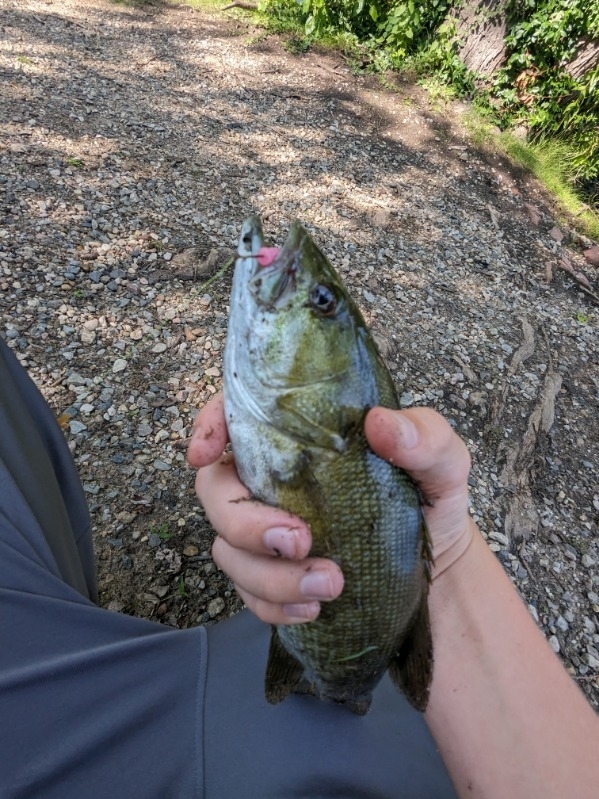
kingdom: Animalia
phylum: Chordata
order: Perciformes
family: Centrarchidae
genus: Micropterus
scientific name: Micropterus dolomieu
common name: Smallmouth bass
